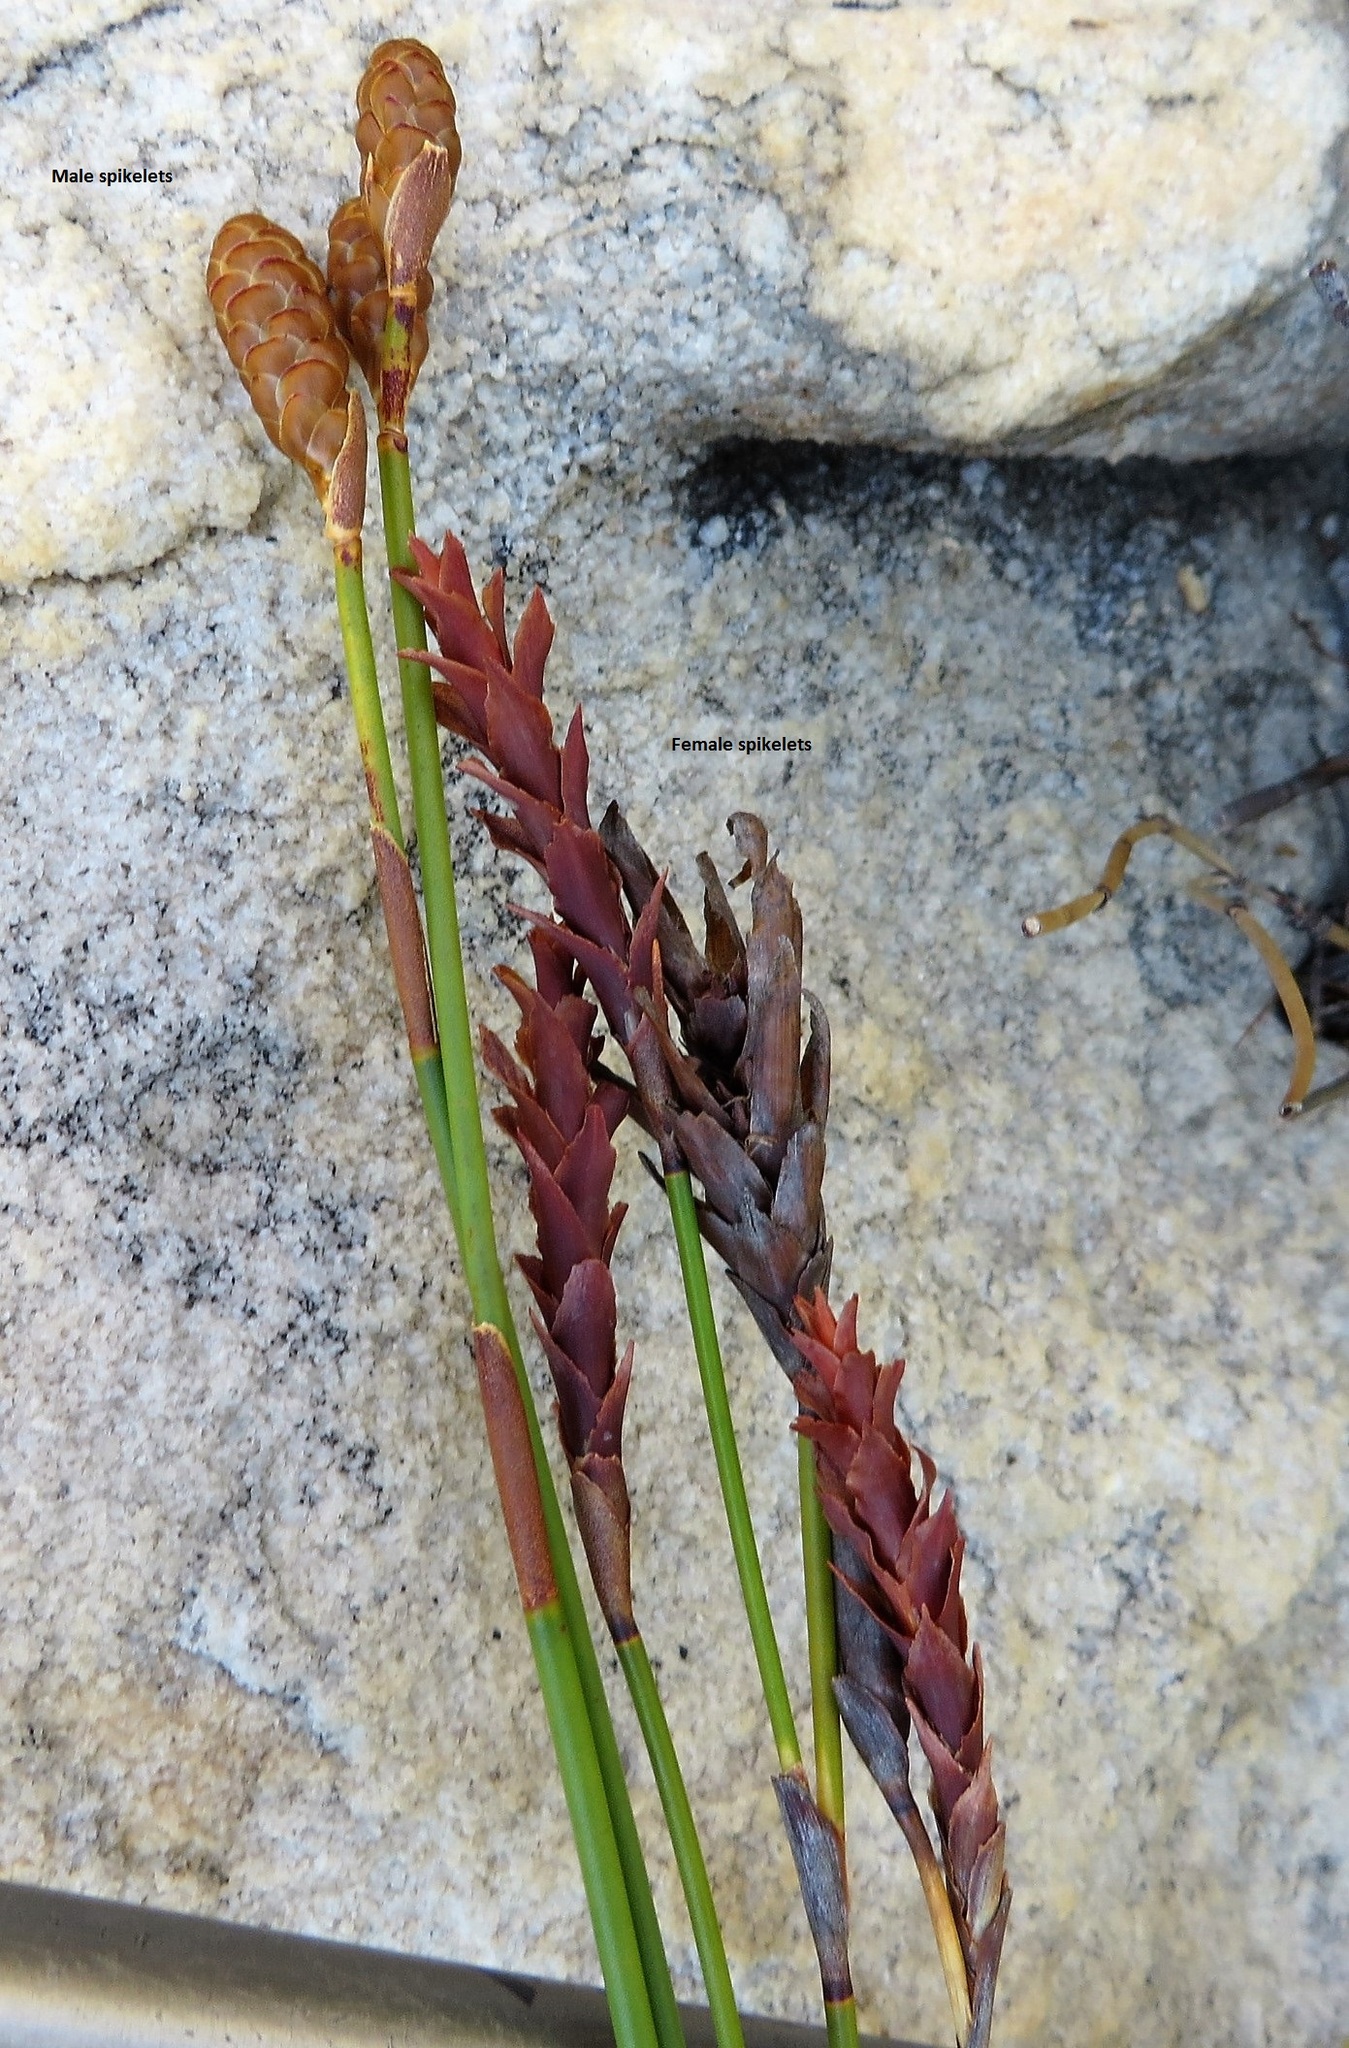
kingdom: Plantae
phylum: Tracheophyta
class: Liliopsida
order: Poales
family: Restionaceae
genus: Nevillea
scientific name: Nevillea obtusissimus
